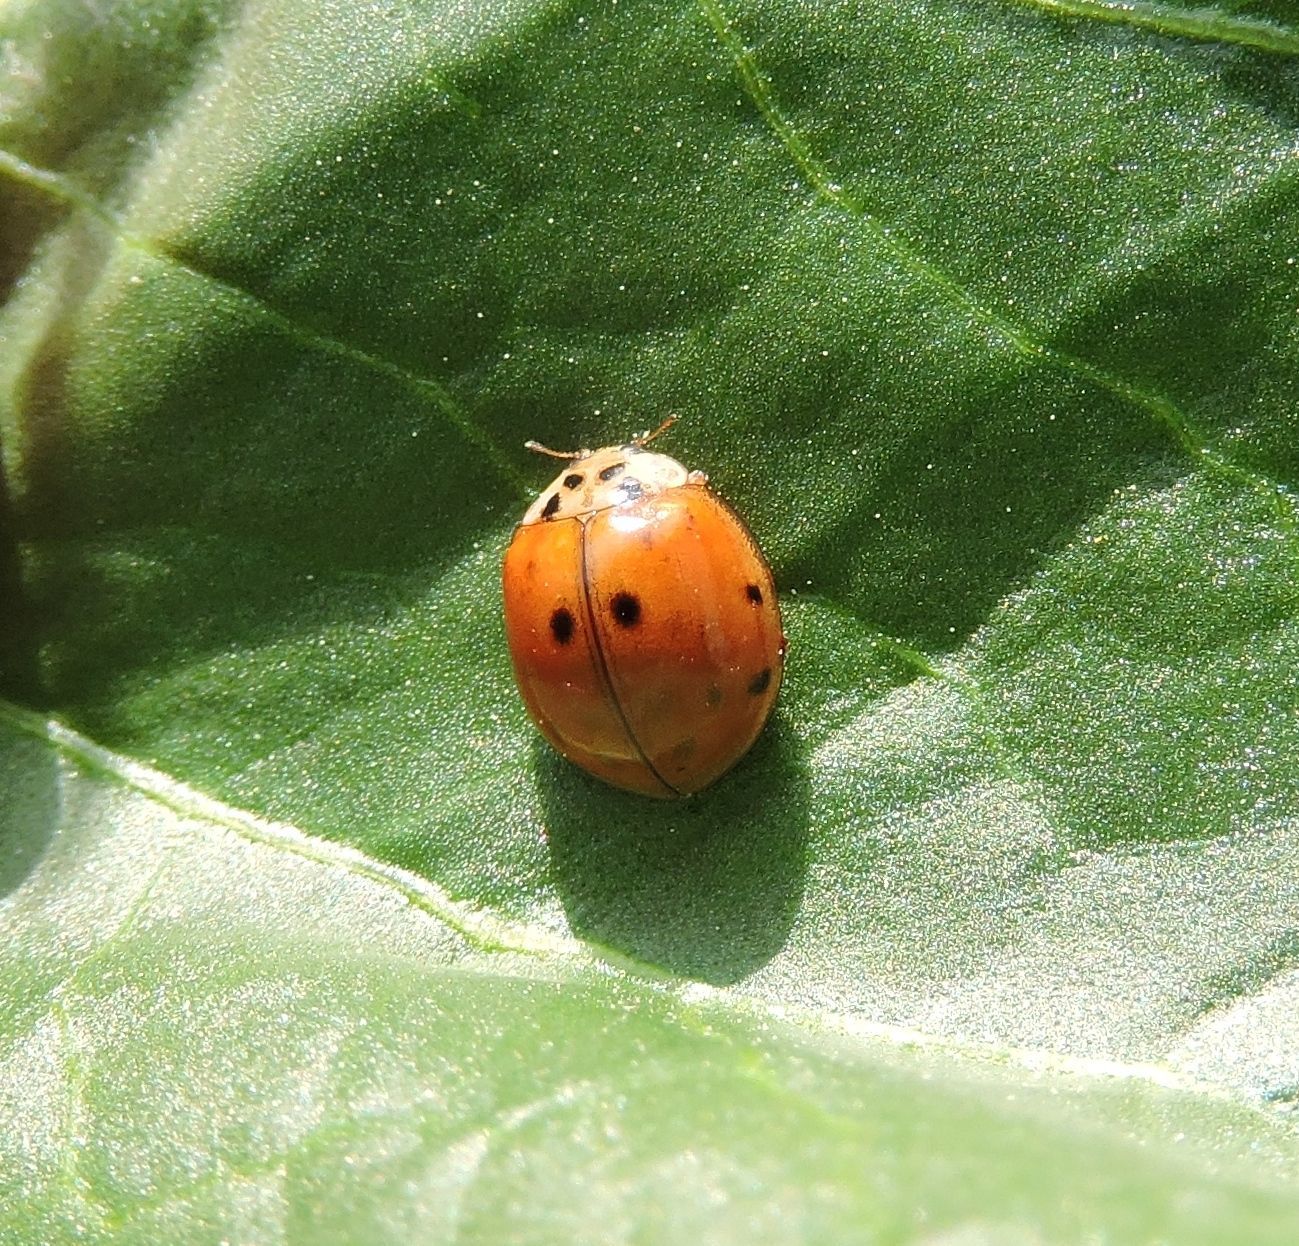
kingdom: Animalia
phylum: Arthropoda
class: Insecta
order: Coleoptera
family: Coccinellidae
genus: Harmonia
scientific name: Harmonia axyridis
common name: Harlequin ladybird
